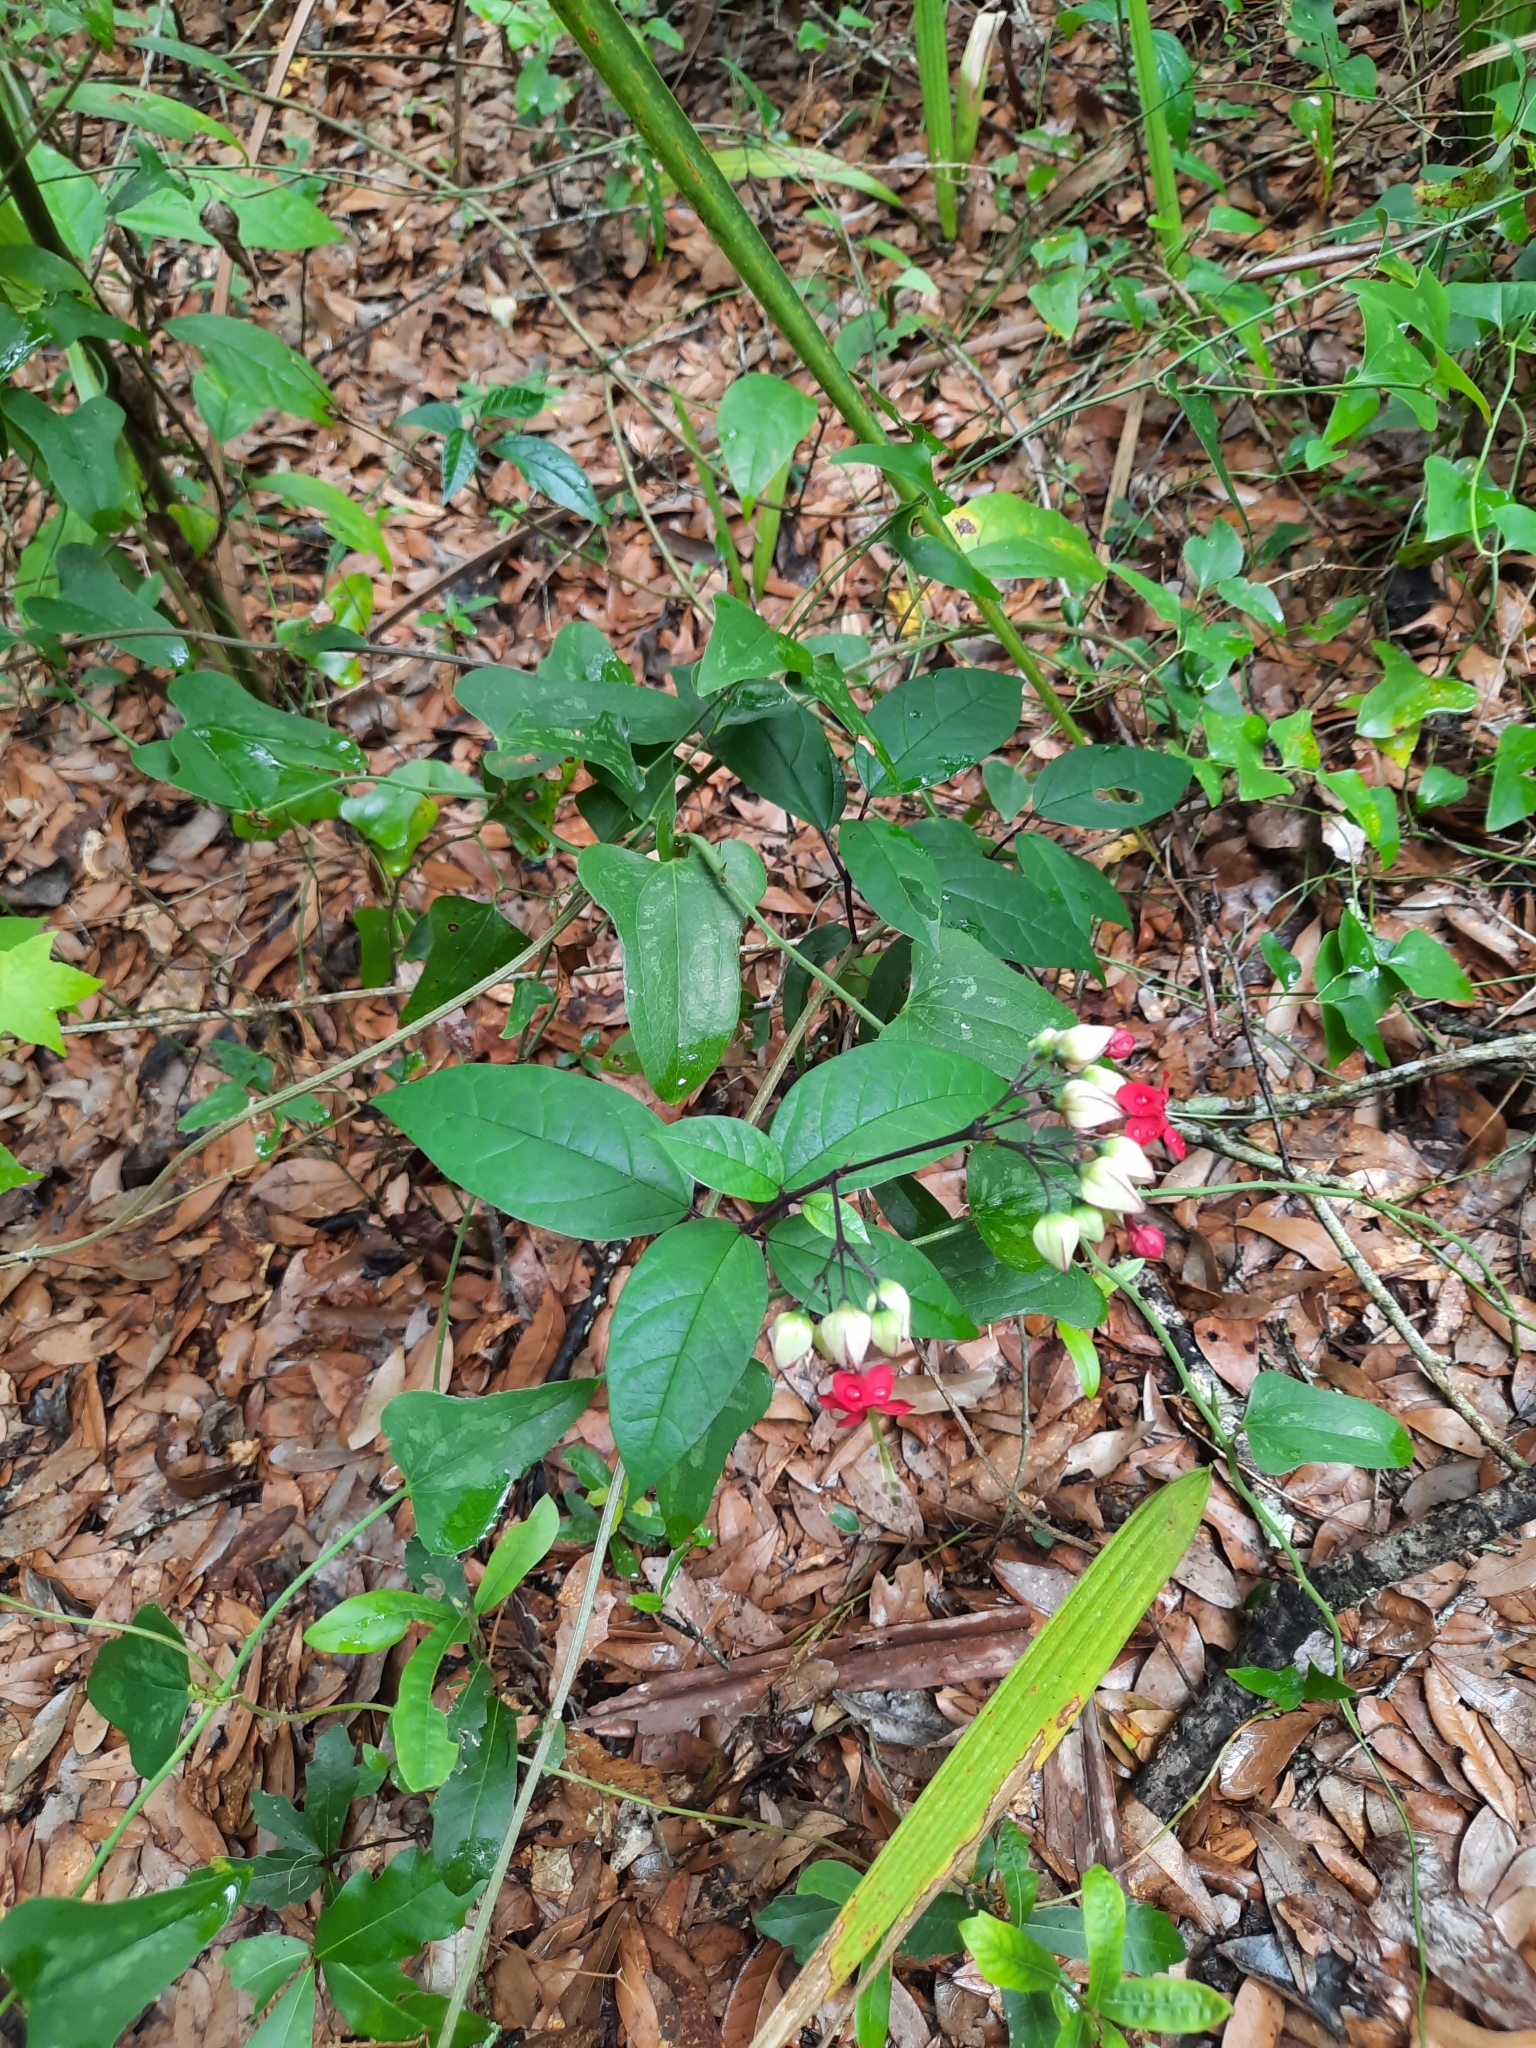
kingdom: Plantae
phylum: Tracheophyta
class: Magnoliopsida
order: Lamiales
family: Lamiaceae
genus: Clerodendrum
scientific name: Clerodendrum thomsoniae
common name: Bagflower
